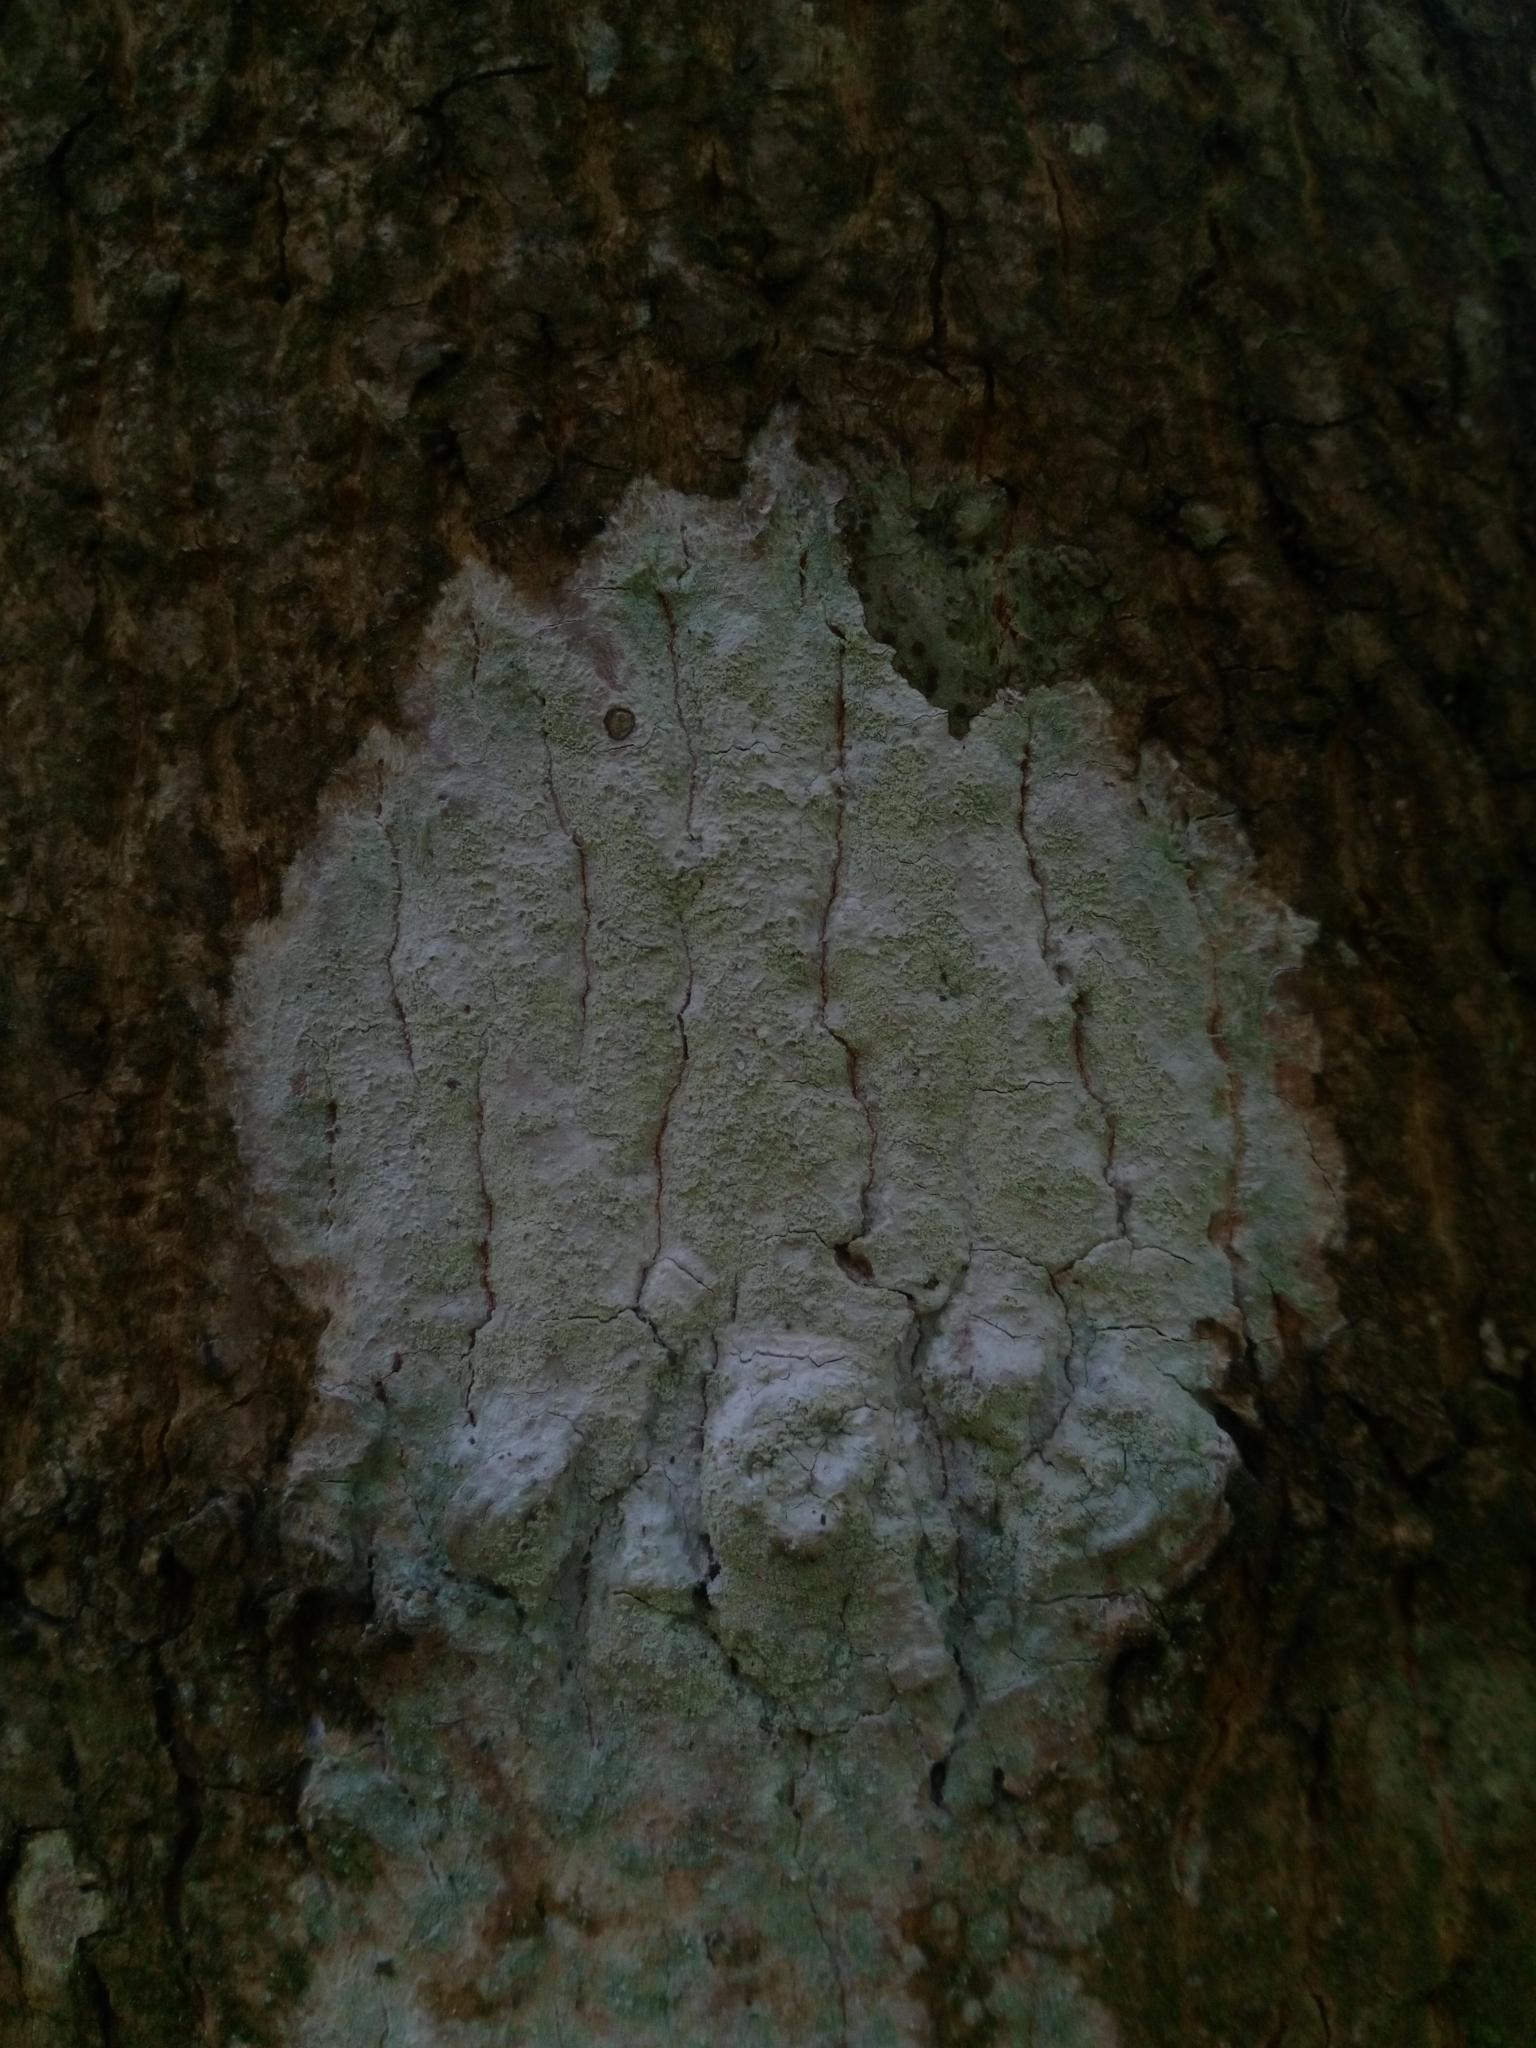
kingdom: Fungi
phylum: Ascomycota
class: Lecanoromycetes
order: Ostropales
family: Phlyctidaceae
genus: Phlyctis
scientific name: Phlyctis argena
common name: Whitewash lichen
